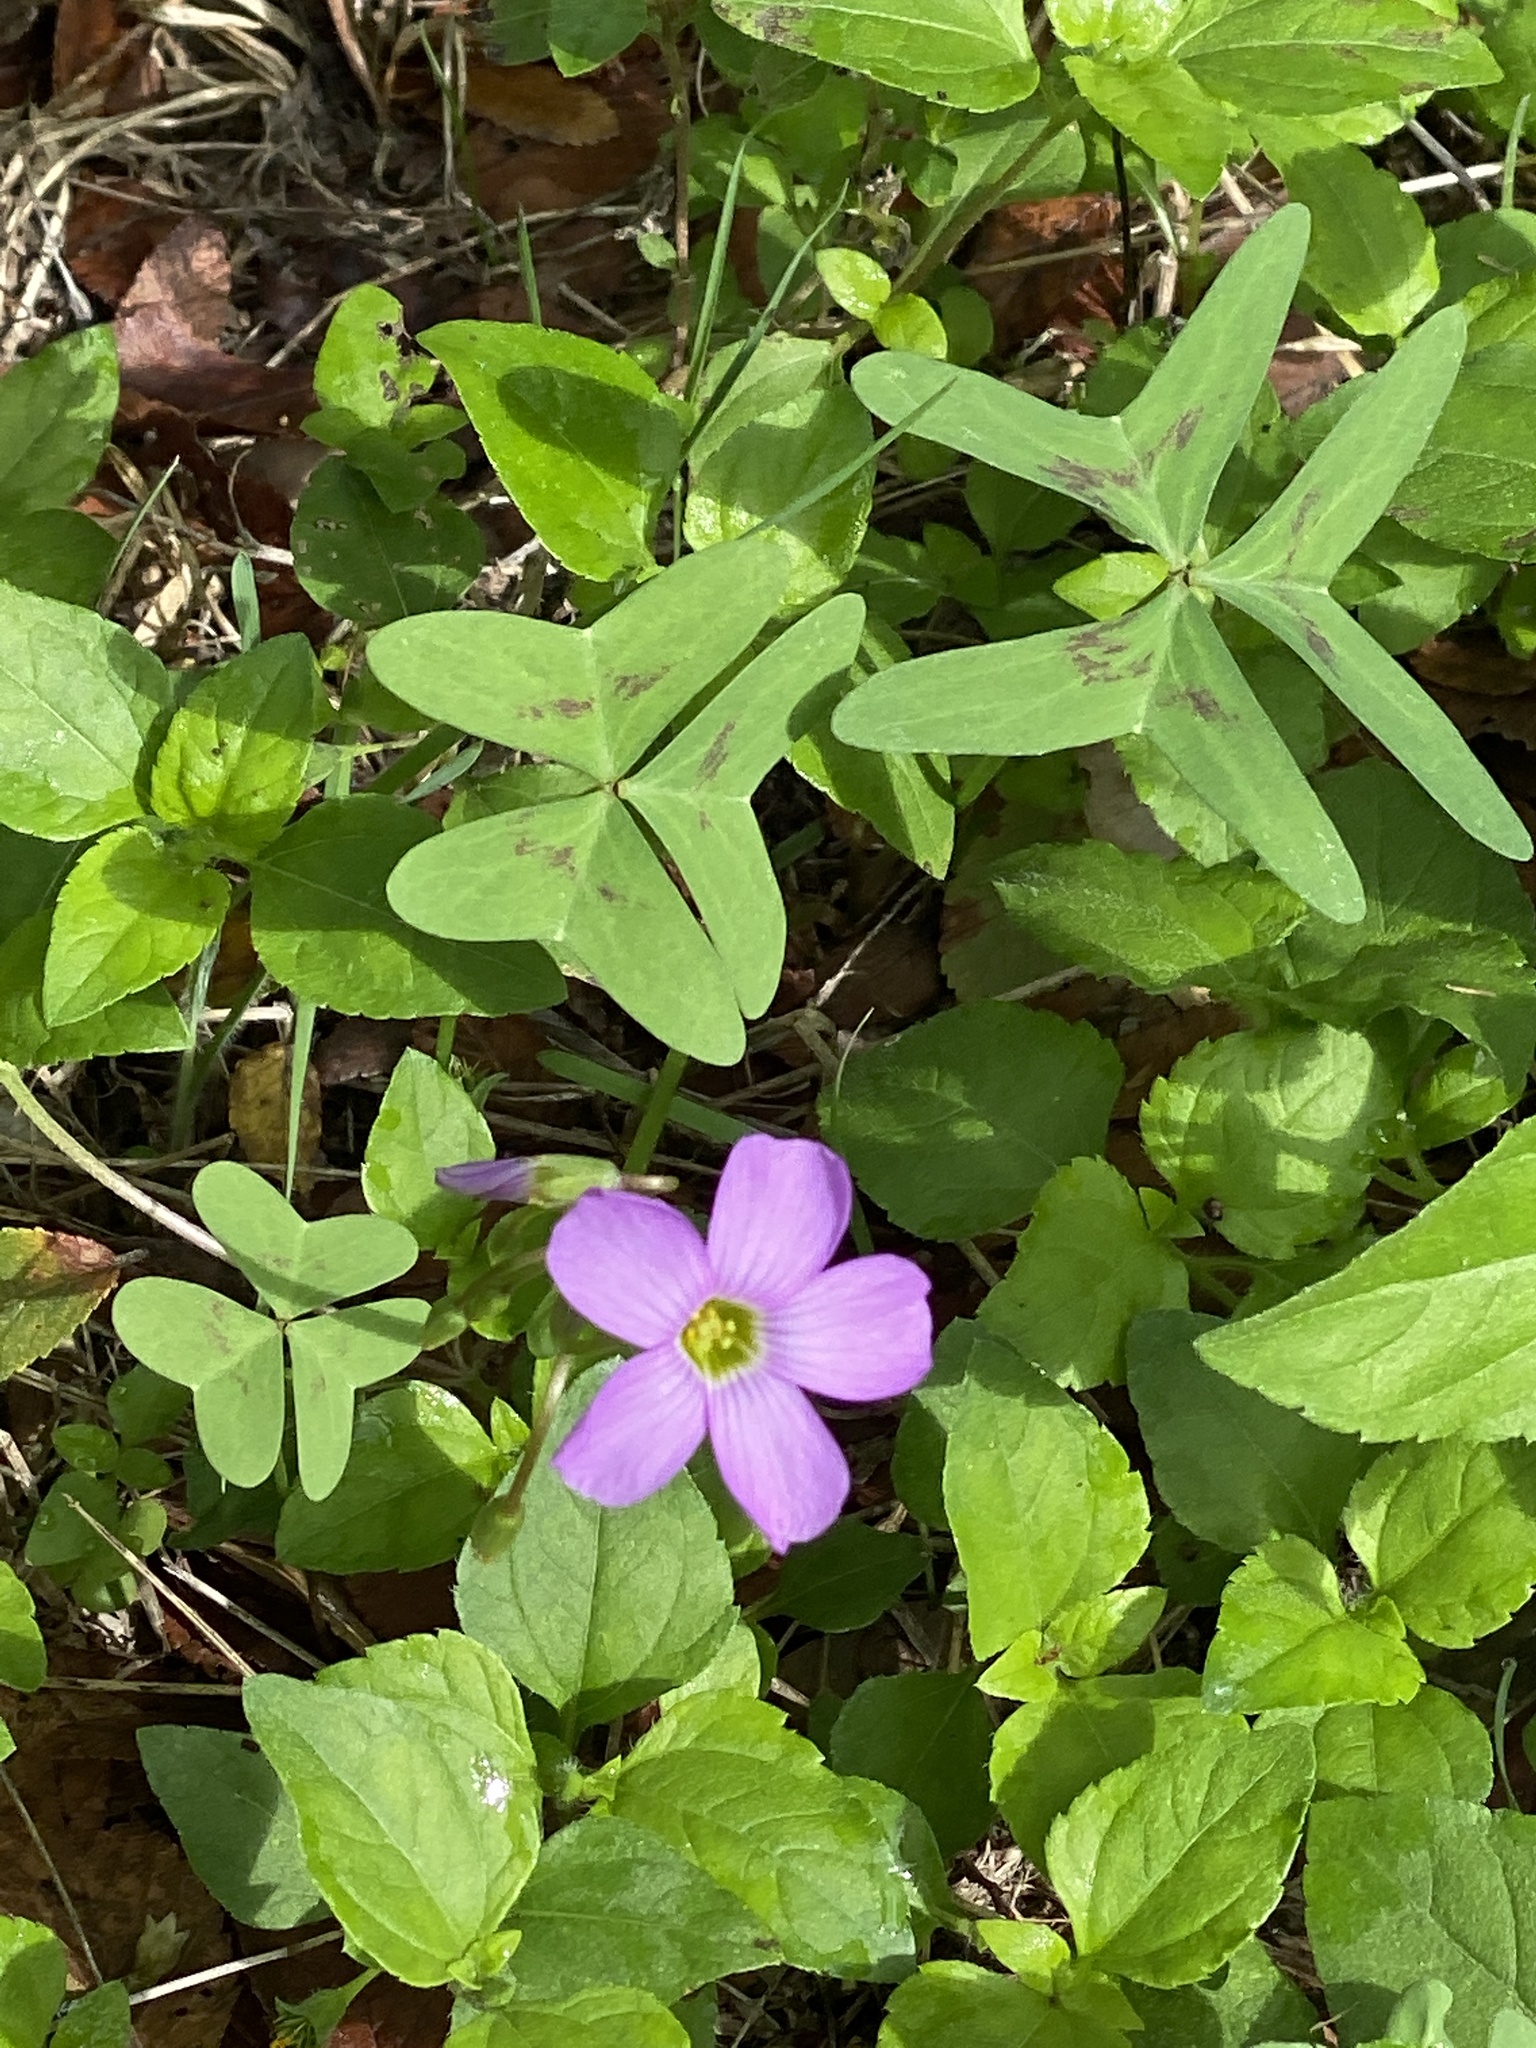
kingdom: Plantae
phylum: Tracheophyta
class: Magnoliopsida
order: Oxalidales
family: Oxalidaceae
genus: Oxalis
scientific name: Oxalis drummondii
